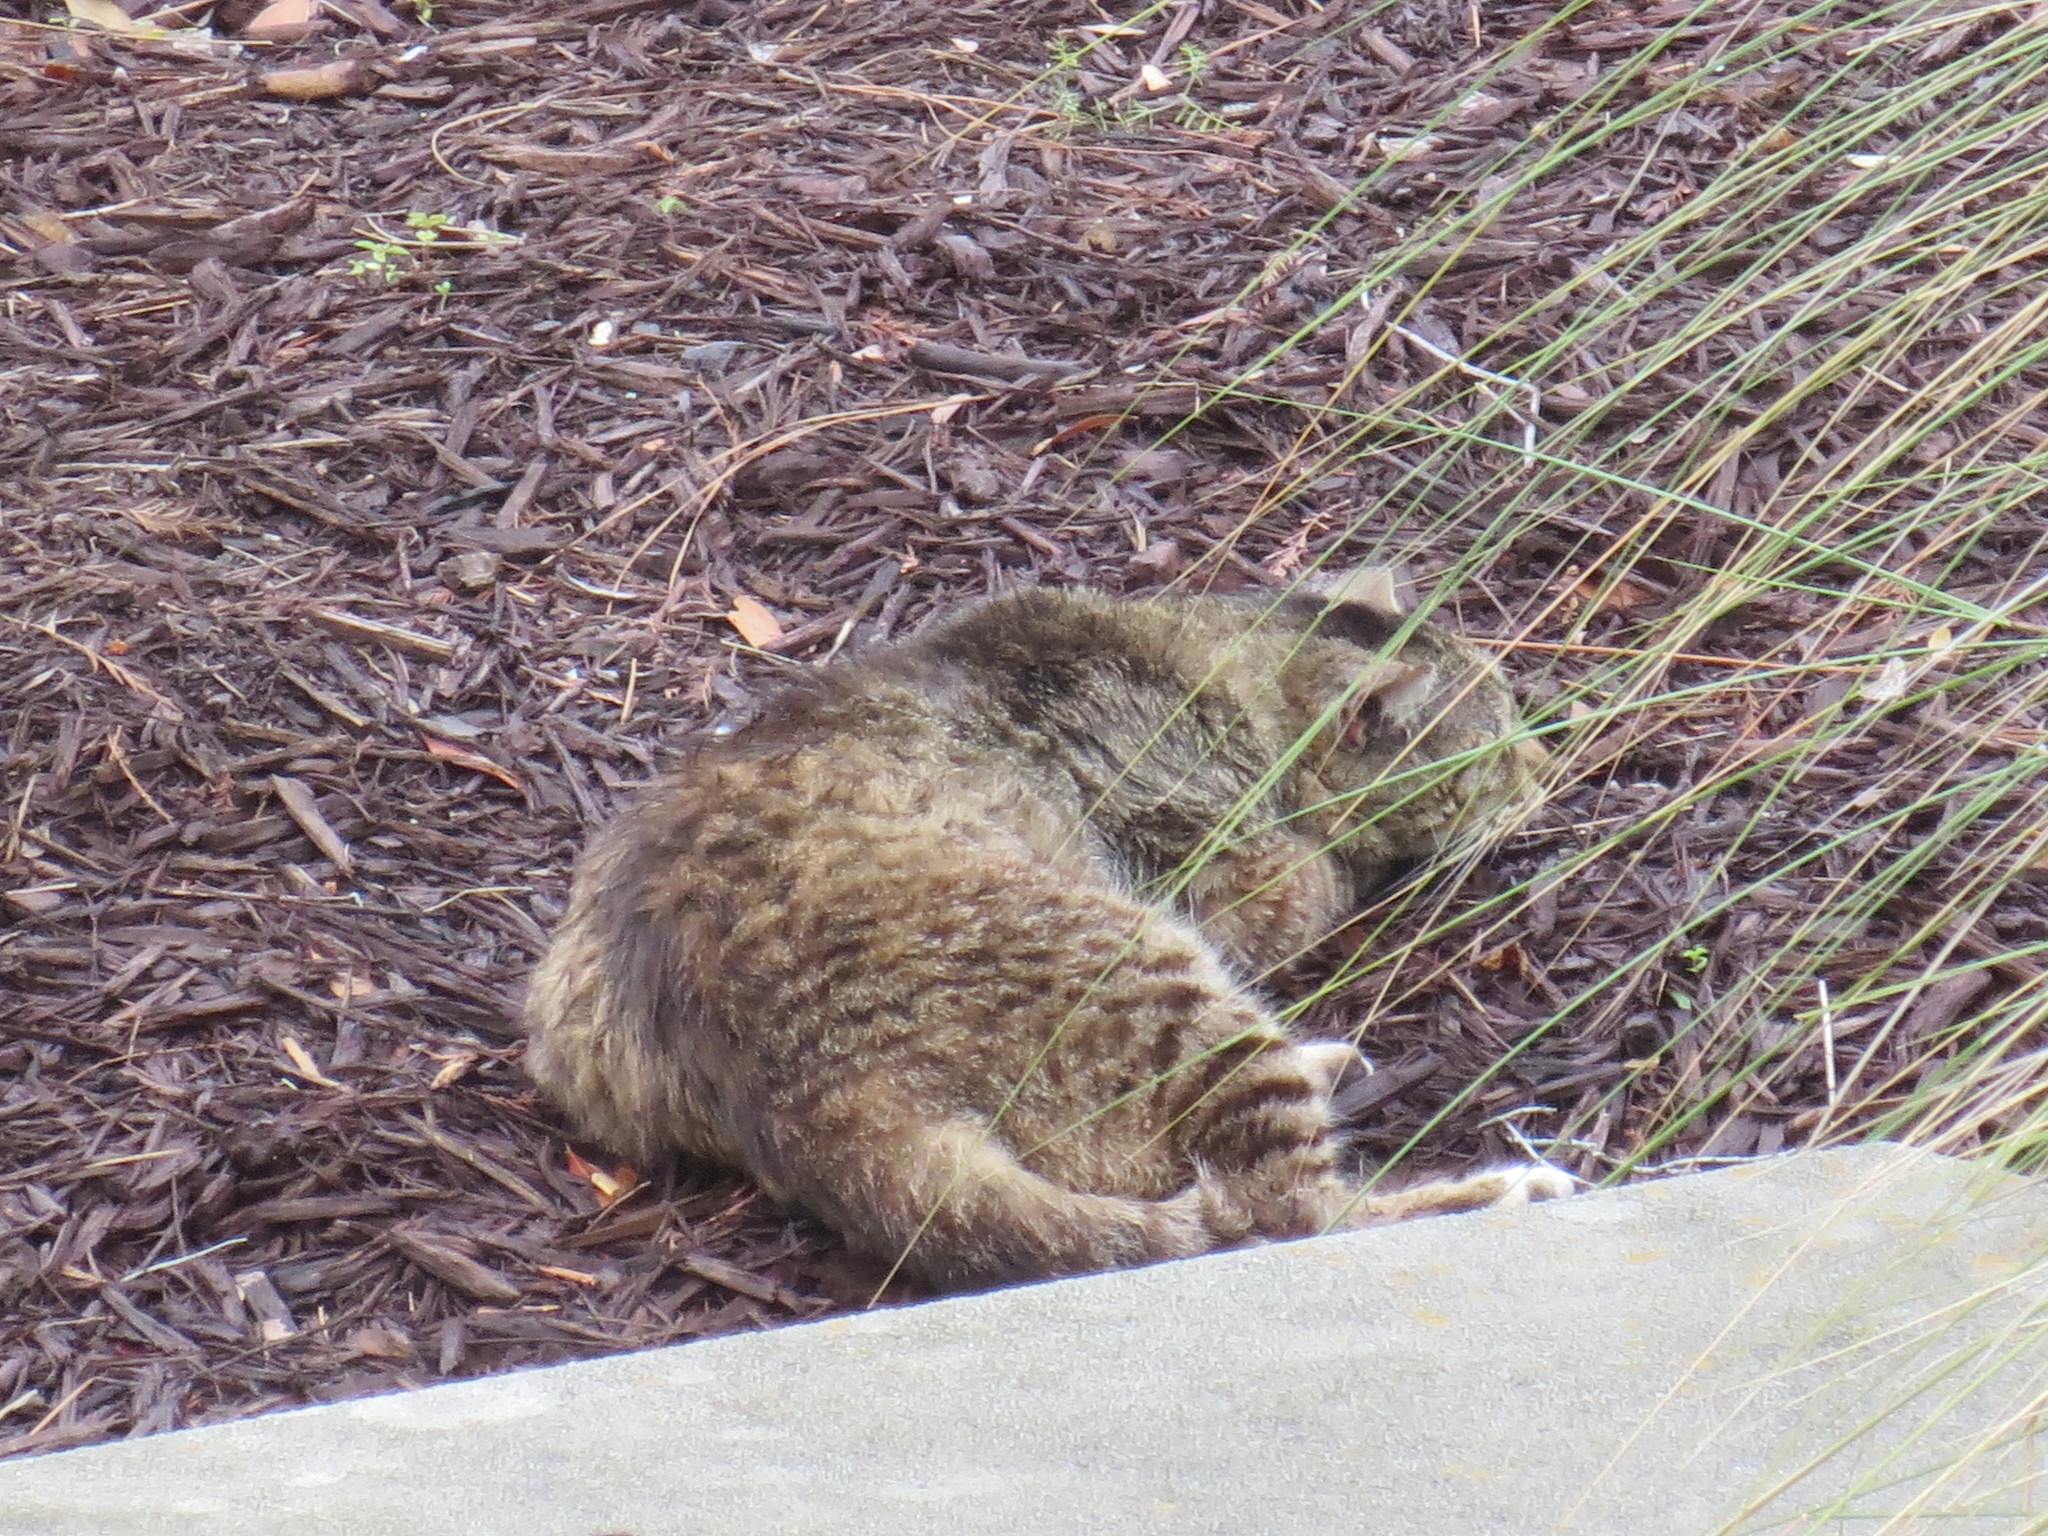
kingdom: Animalia
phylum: Chordata
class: Mammalia
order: Carnivora
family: Felidae
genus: Felis
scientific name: Felis catus
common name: Domestic cat
